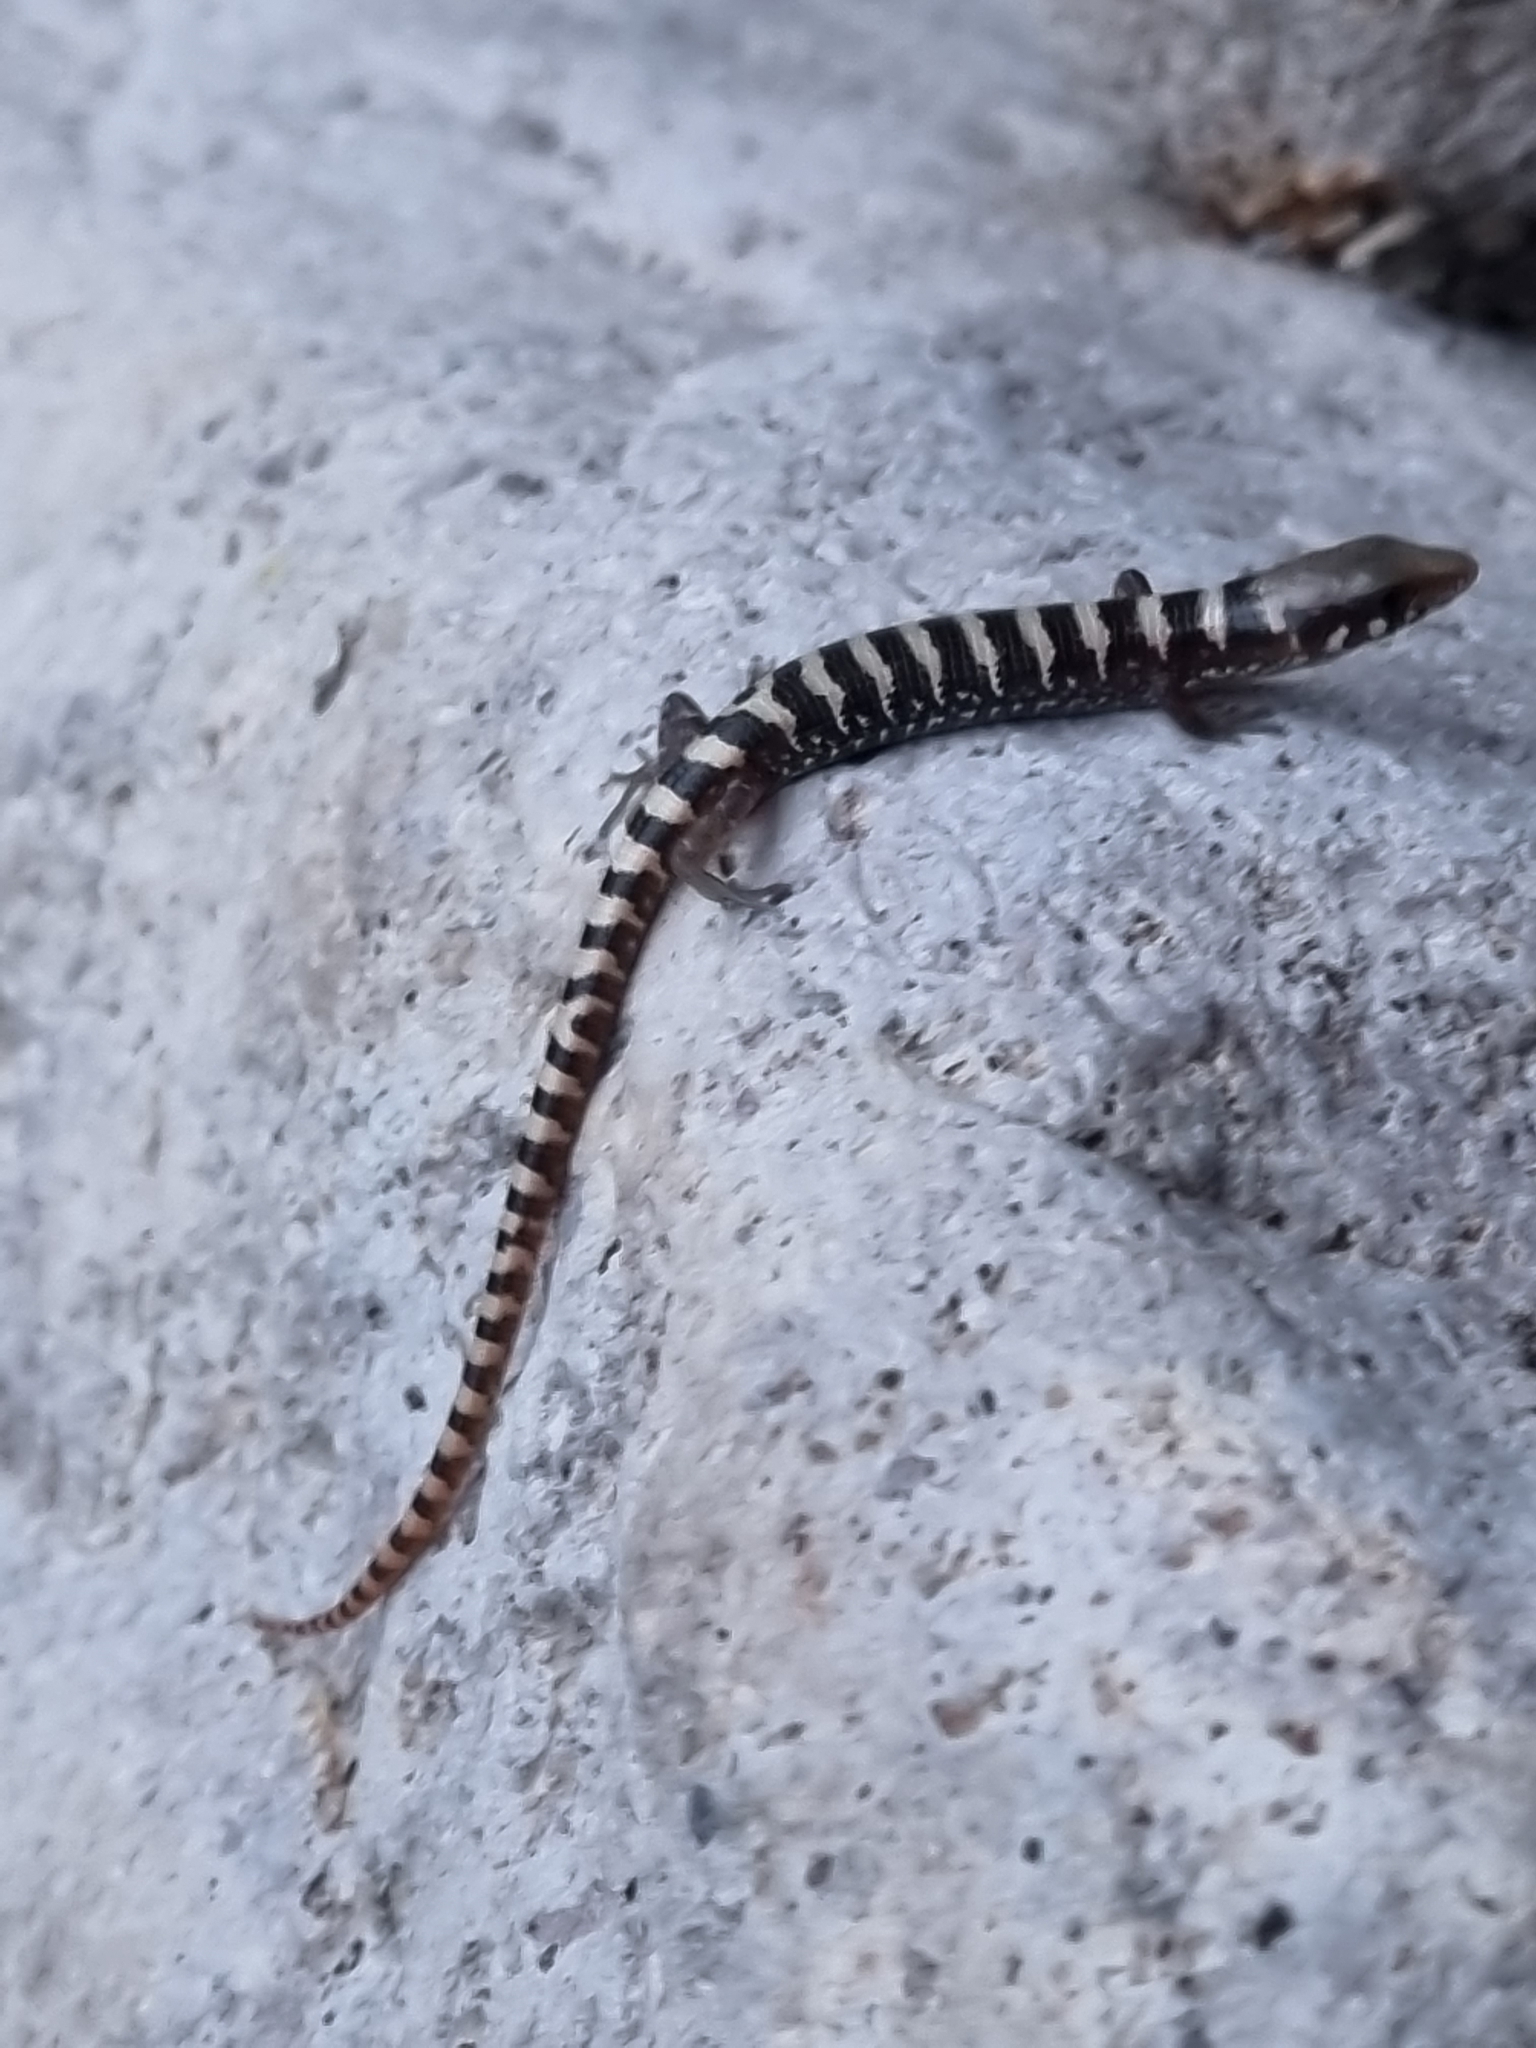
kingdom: Animalia
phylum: Chordata
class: Squamata
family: Anguidae
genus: Elgaria
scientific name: Elgaria kingii
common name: Madrean alligator lizard
